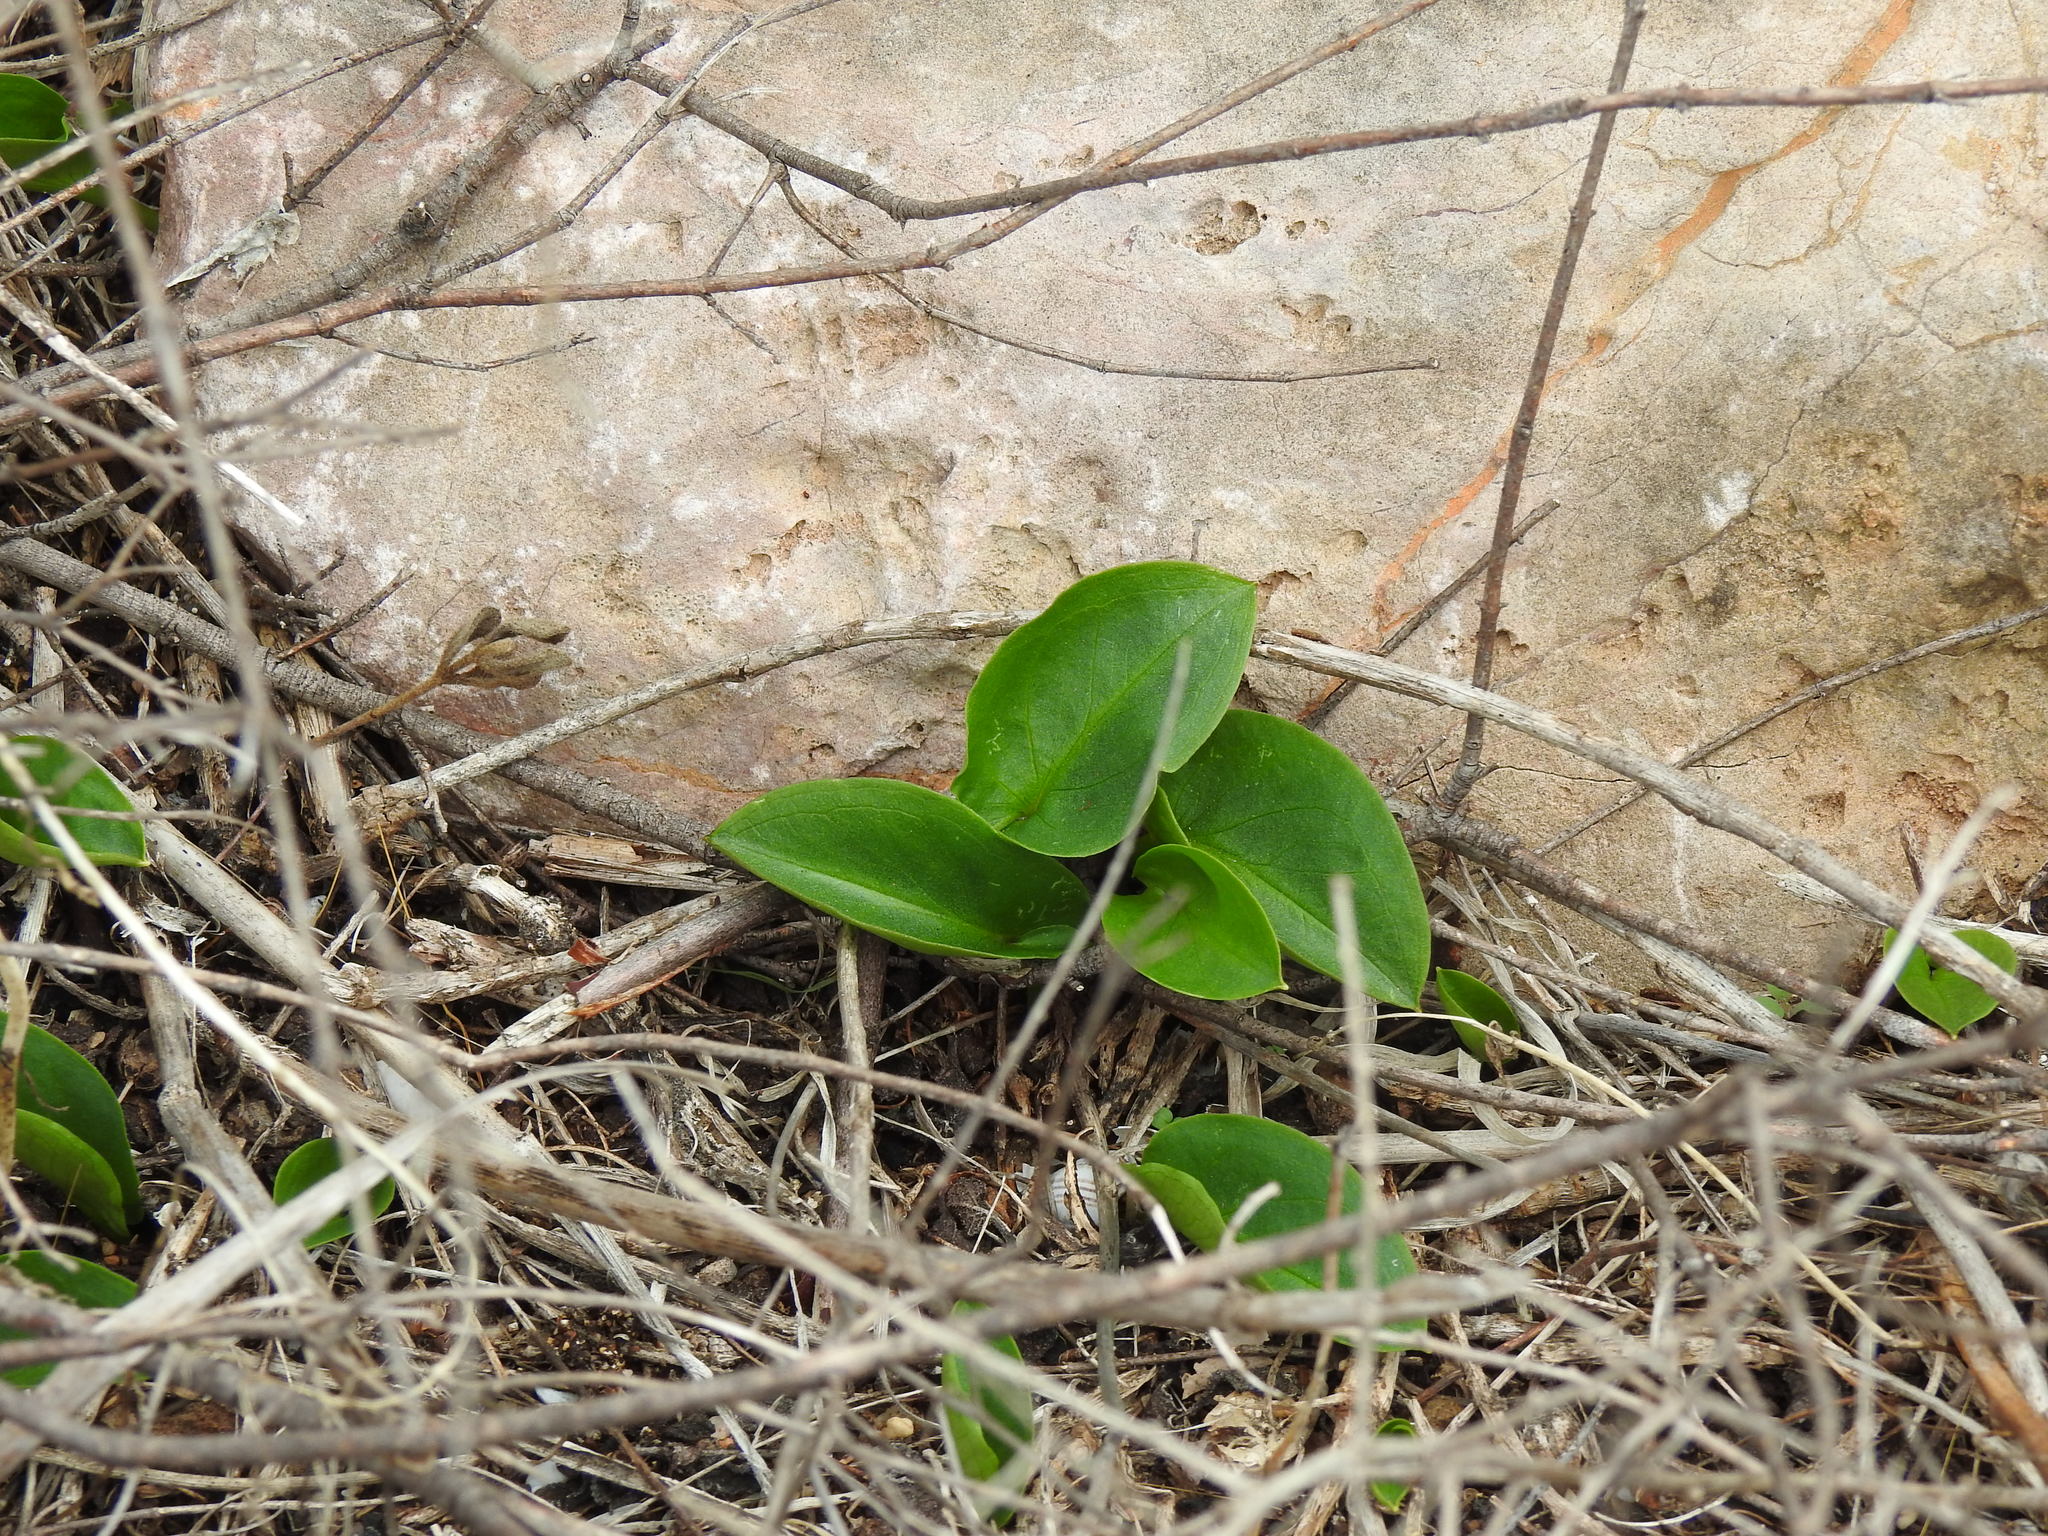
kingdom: Plantae
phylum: Tracheophyta
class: Liliopsida
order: Alismatales
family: Araceae
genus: Arisarum
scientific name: Arisarum simorrhinum
